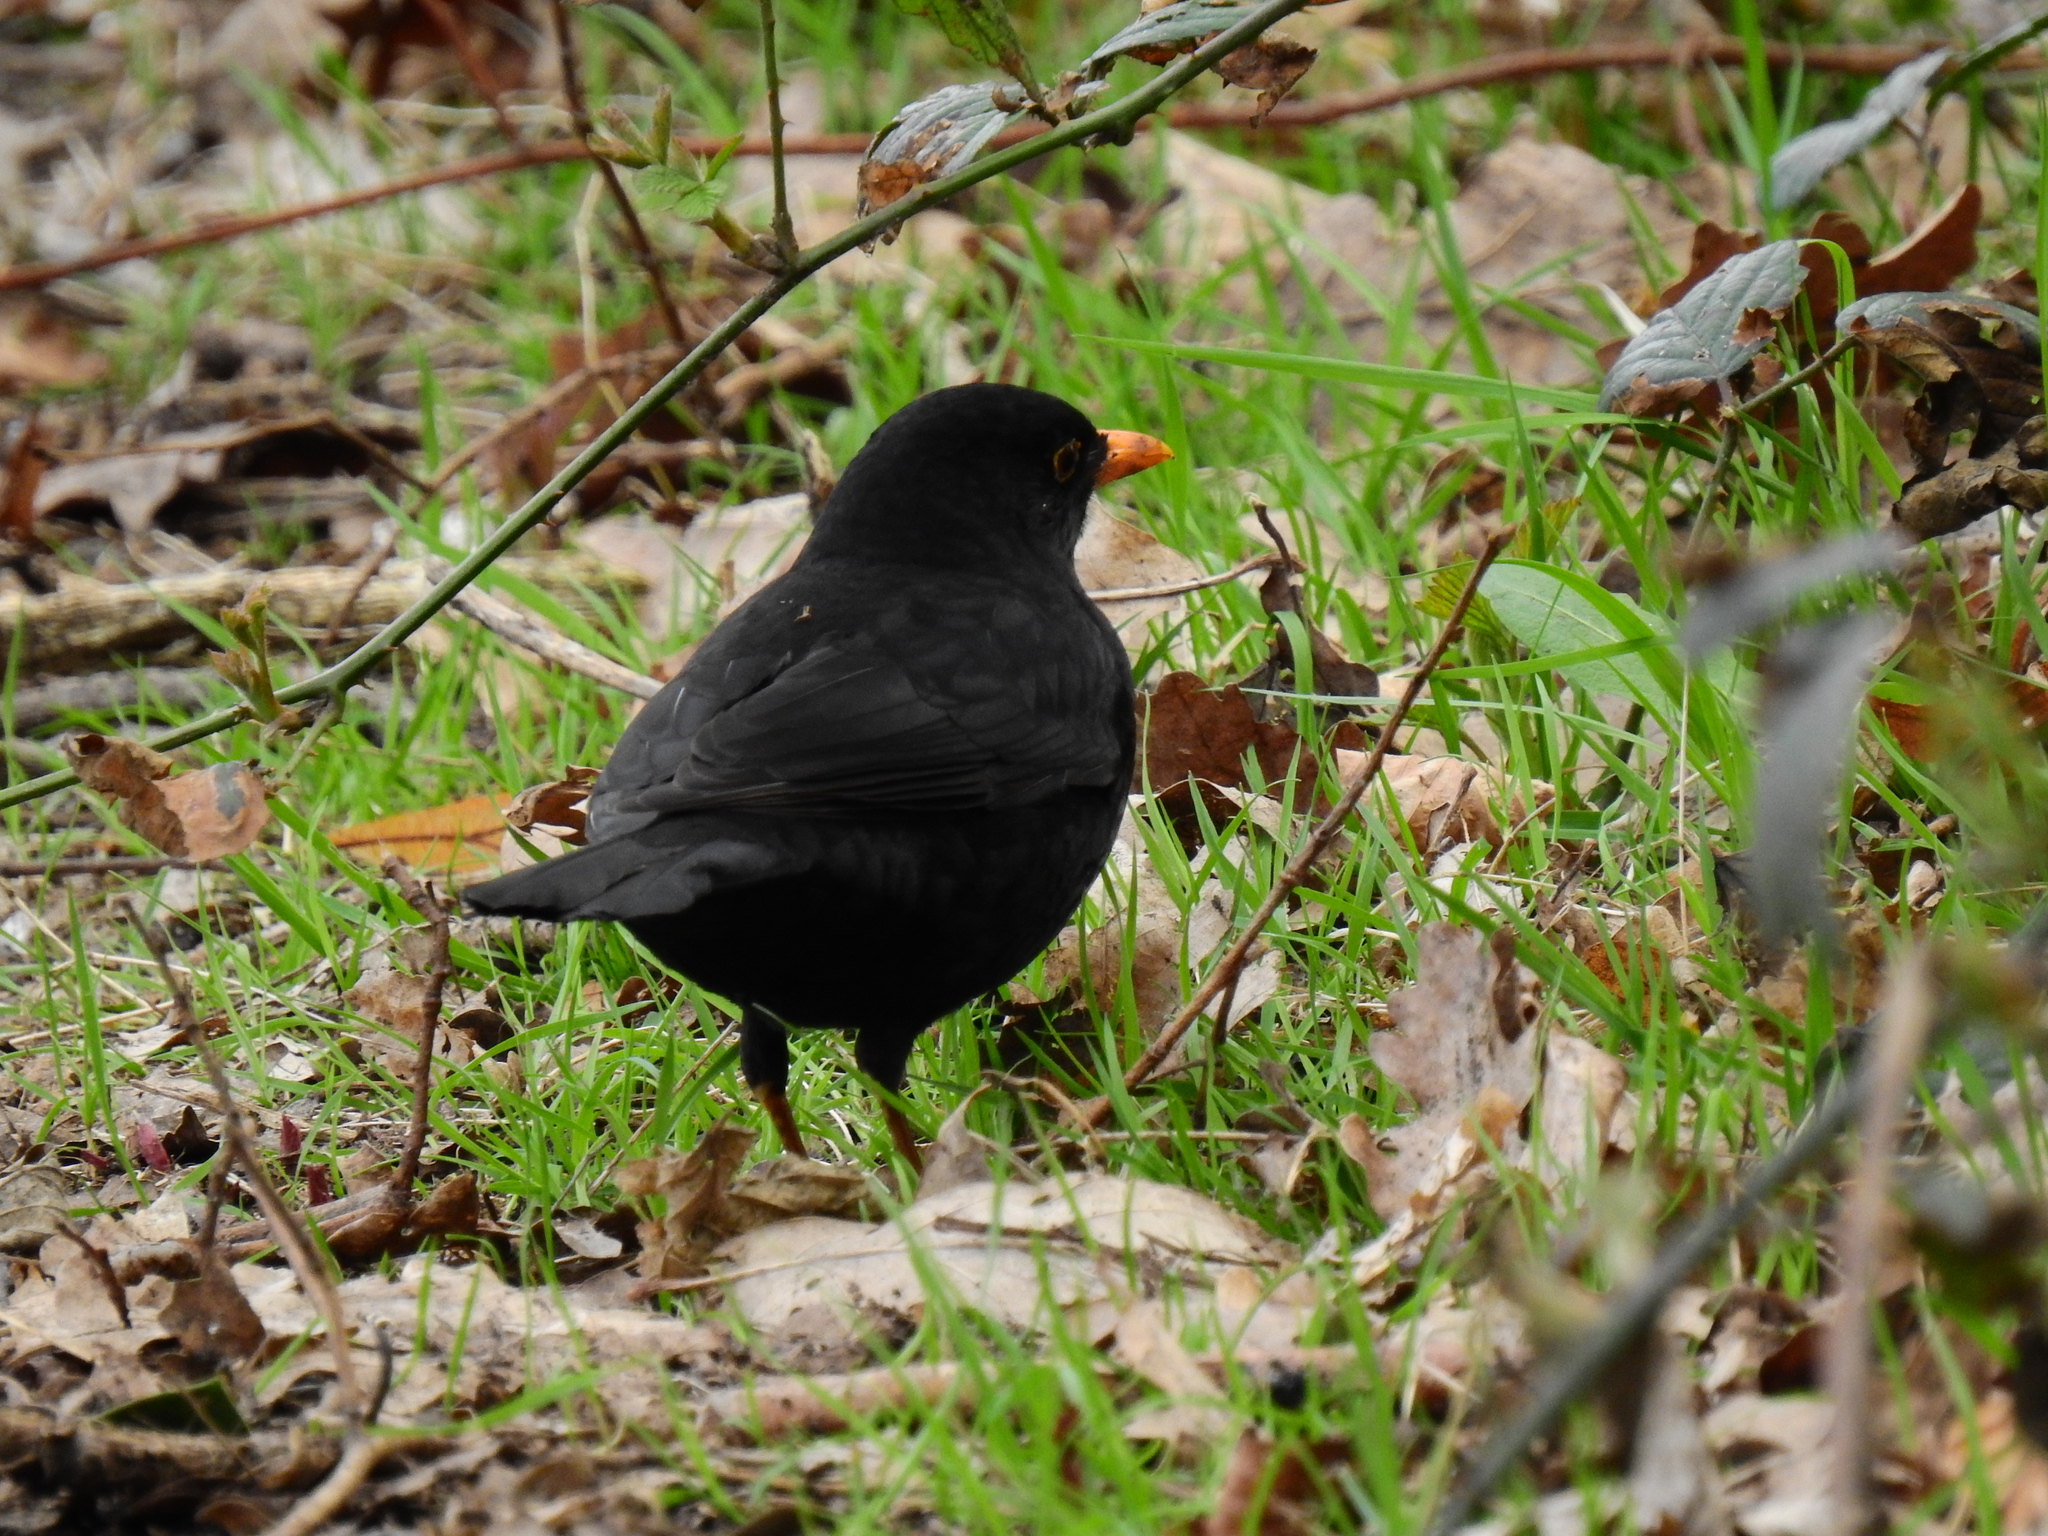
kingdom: Animalia
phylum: Chordata
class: Aves
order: Passeriformes
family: Turdidae
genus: Turdus
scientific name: Turdus merula
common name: Common blackbird
